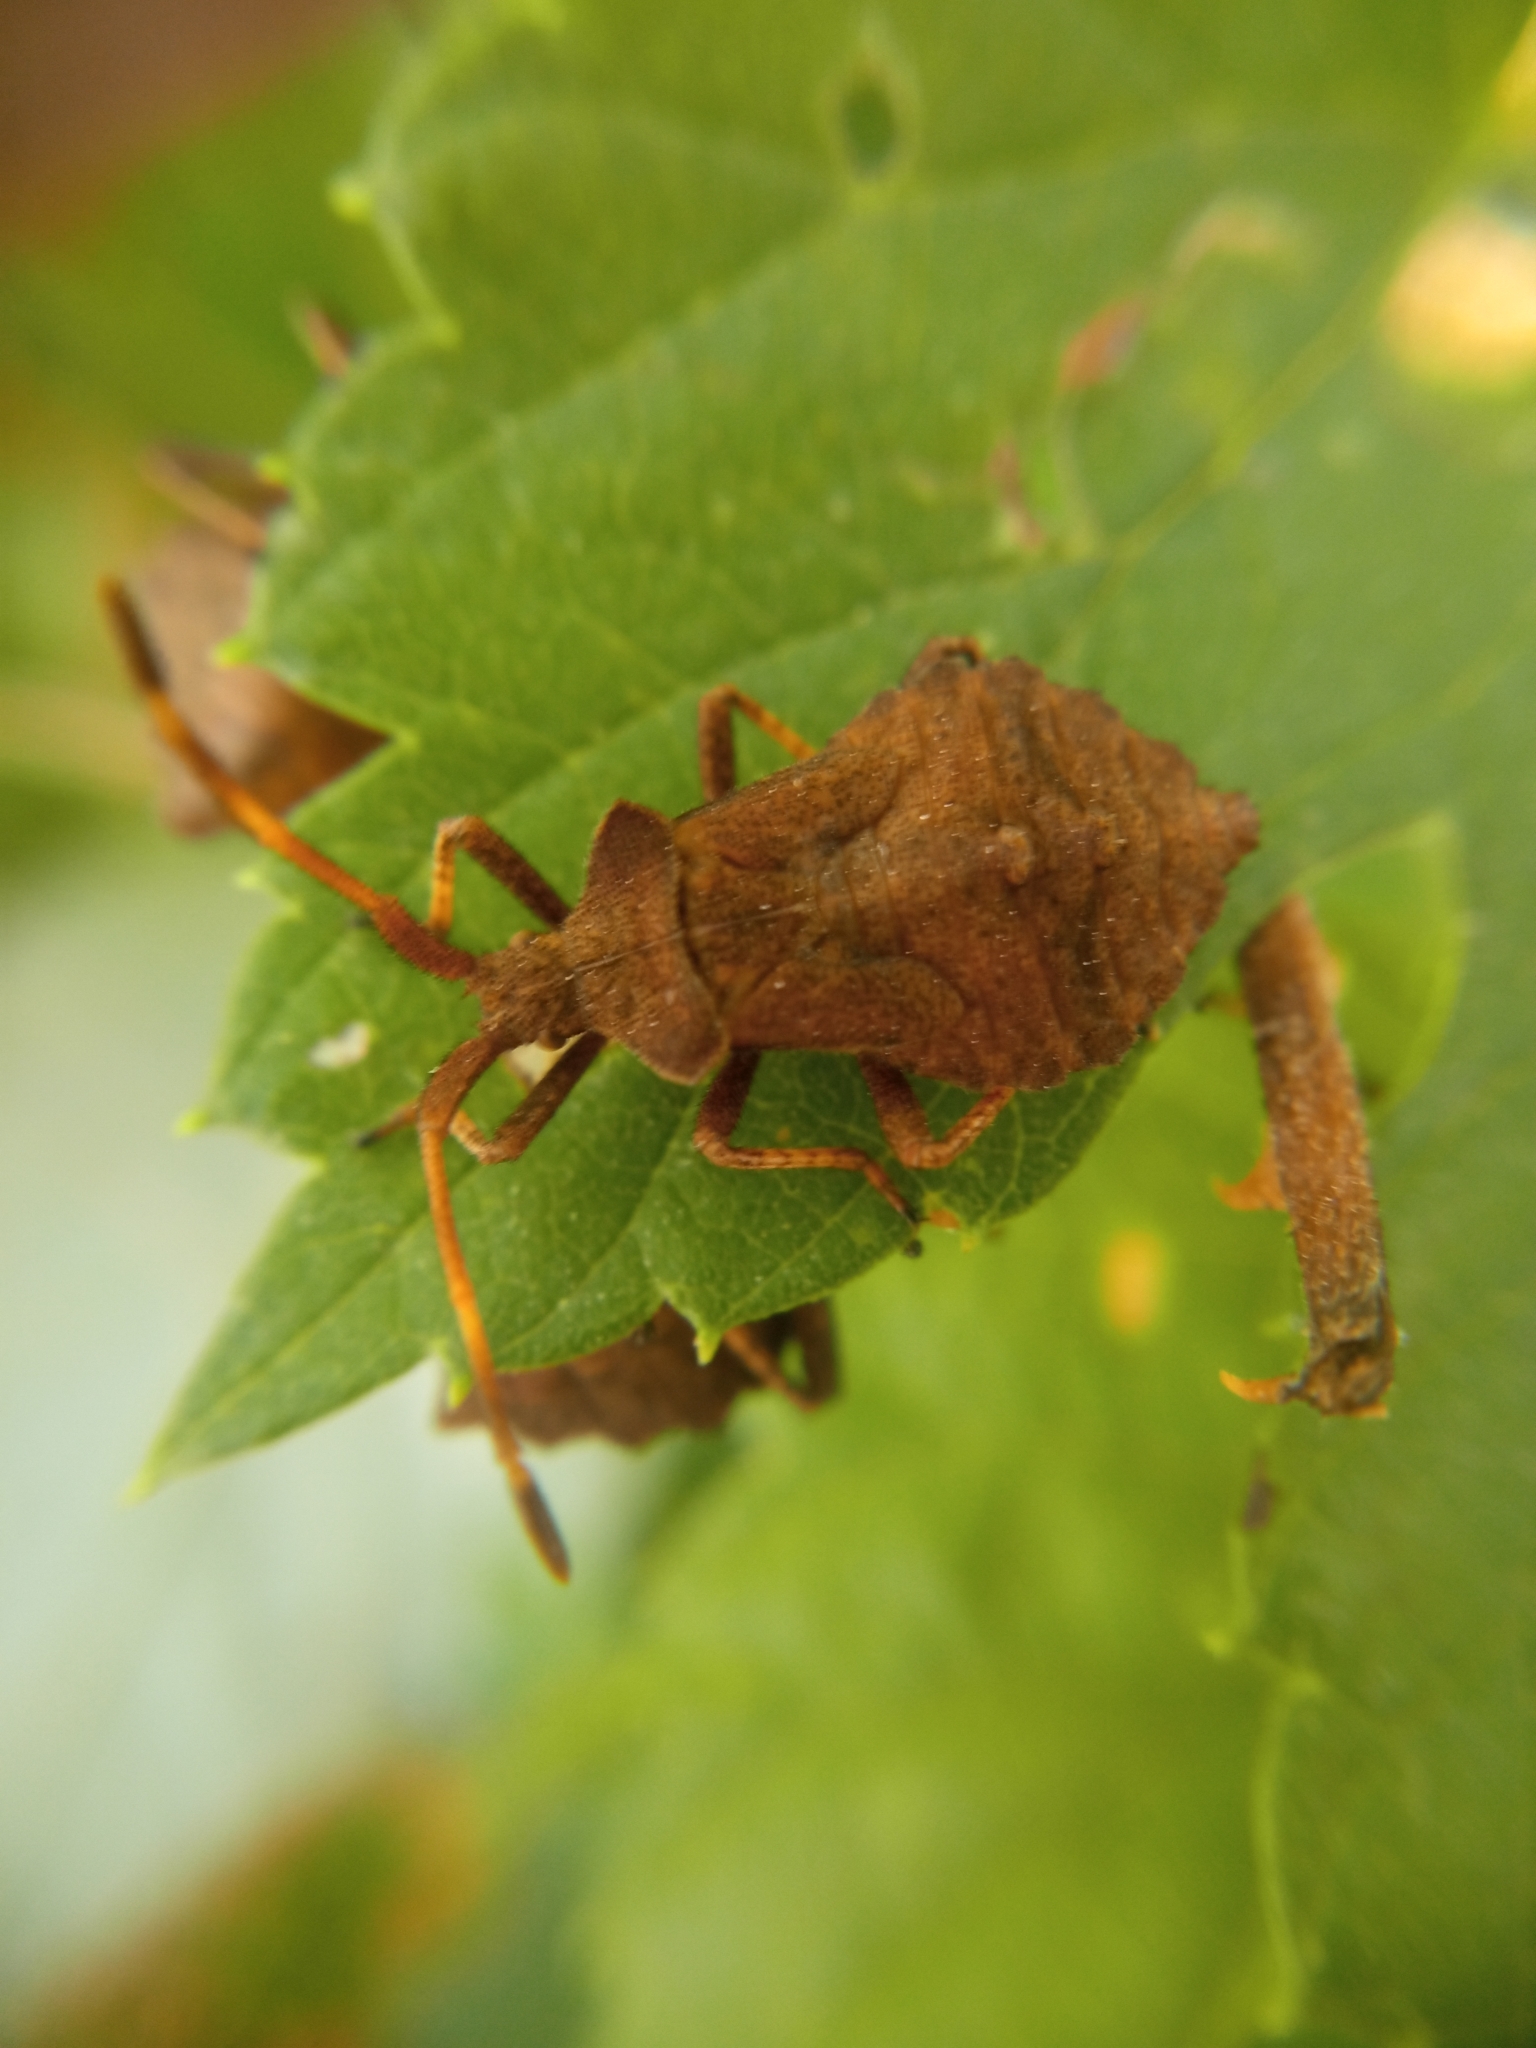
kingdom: Animalia
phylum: Arthropoda
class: Insecta
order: Hemiptera
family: Coreidae
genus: Coreus
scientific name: Coreus marginatus
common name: Dock bug
